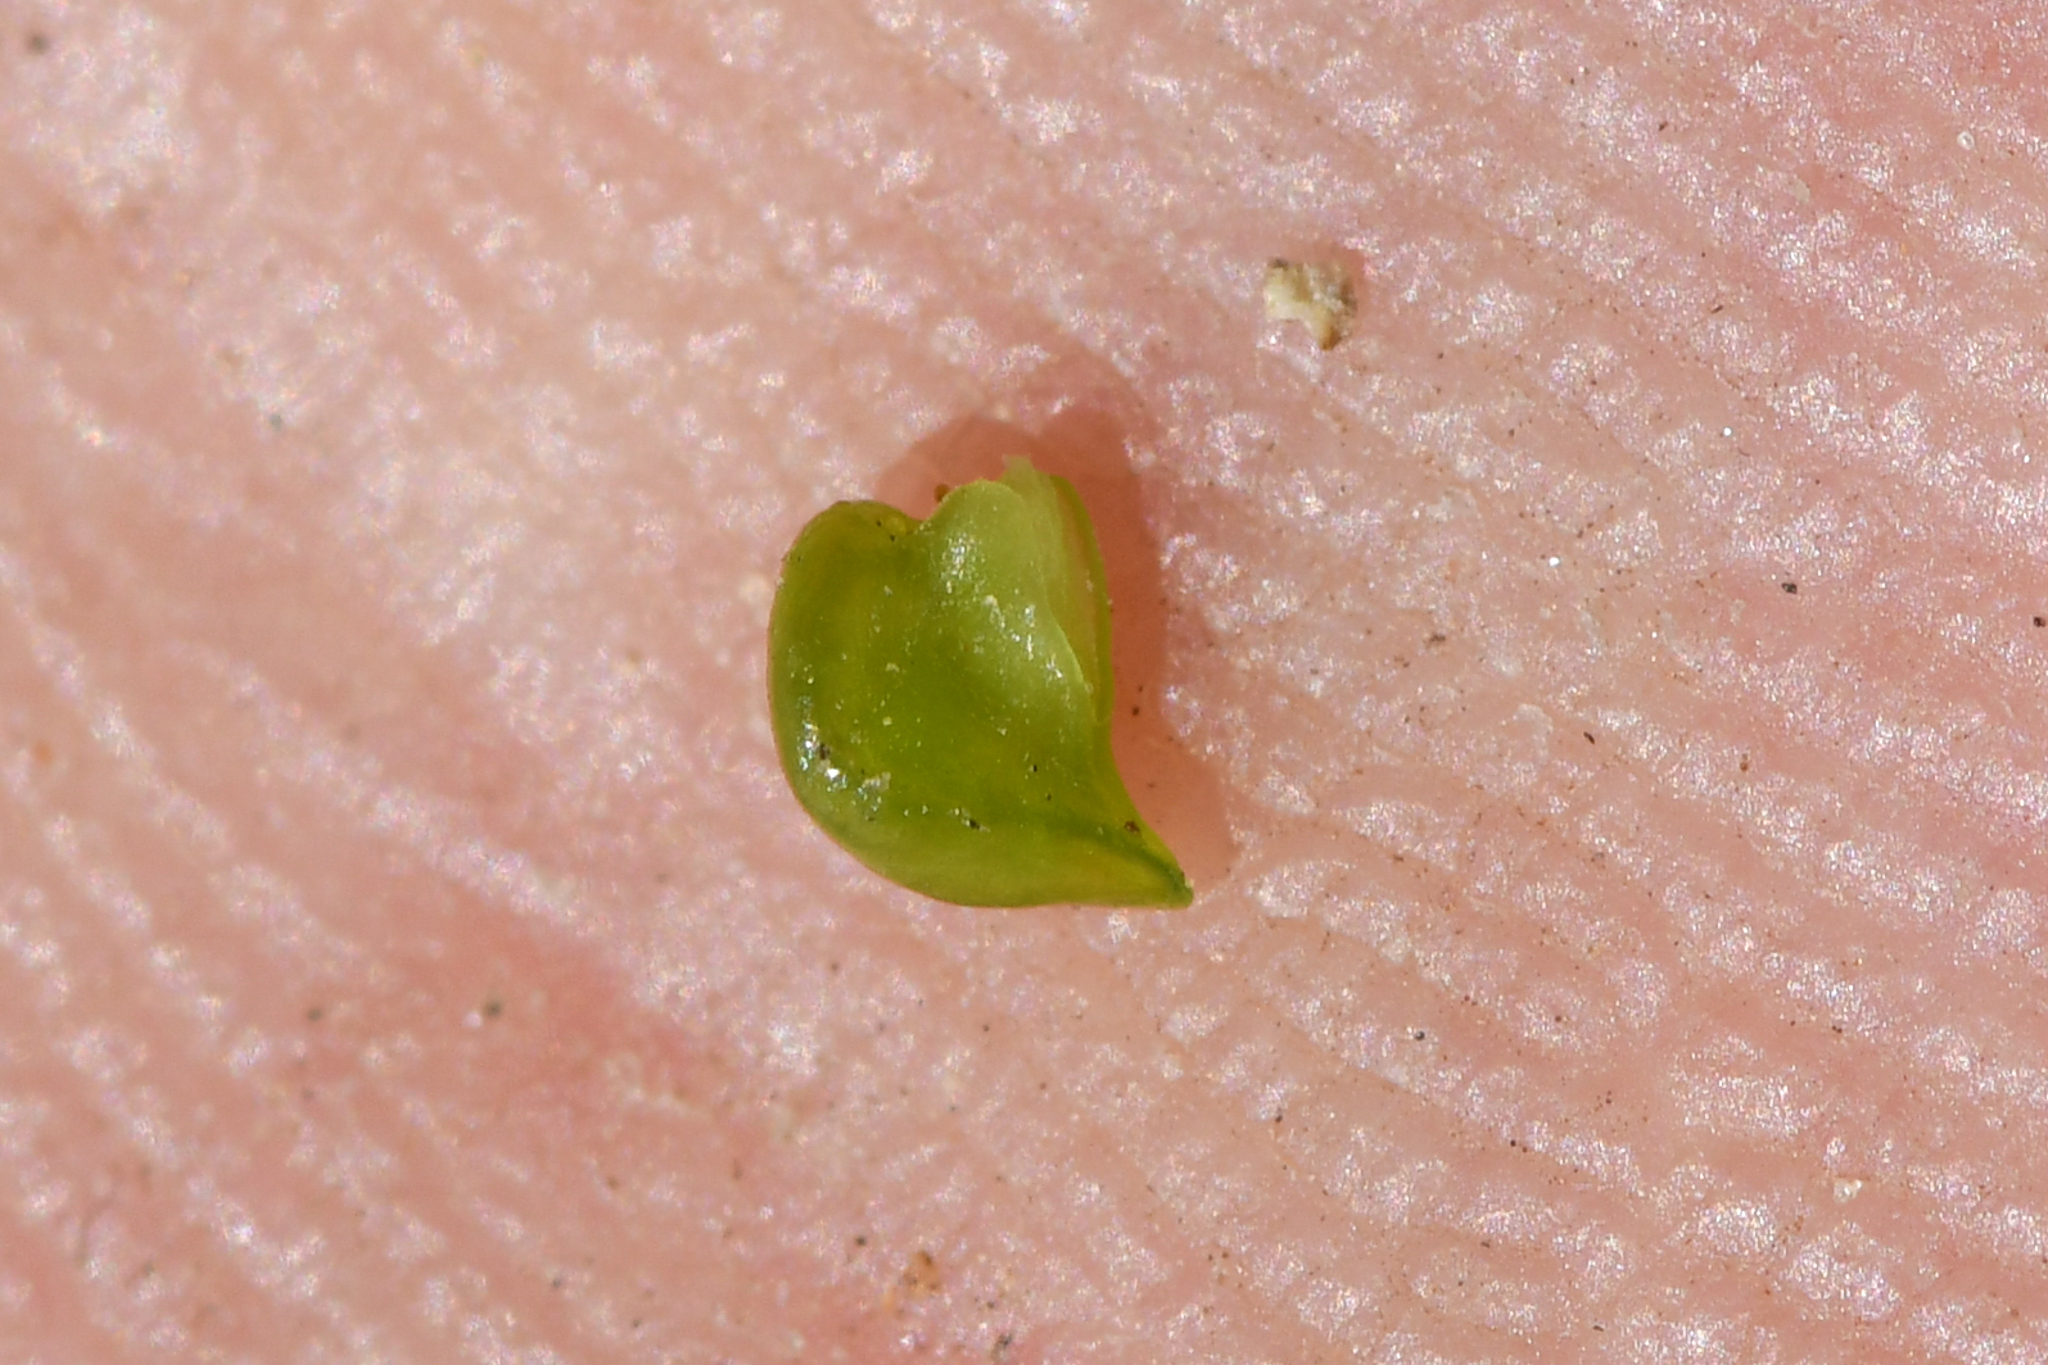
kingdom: Plantae
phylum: Tracheophyta
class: Magnoliopsida
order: Boraginales
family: Boraginaceae
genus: Oreocarya
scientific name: Oreocarya abortiva
